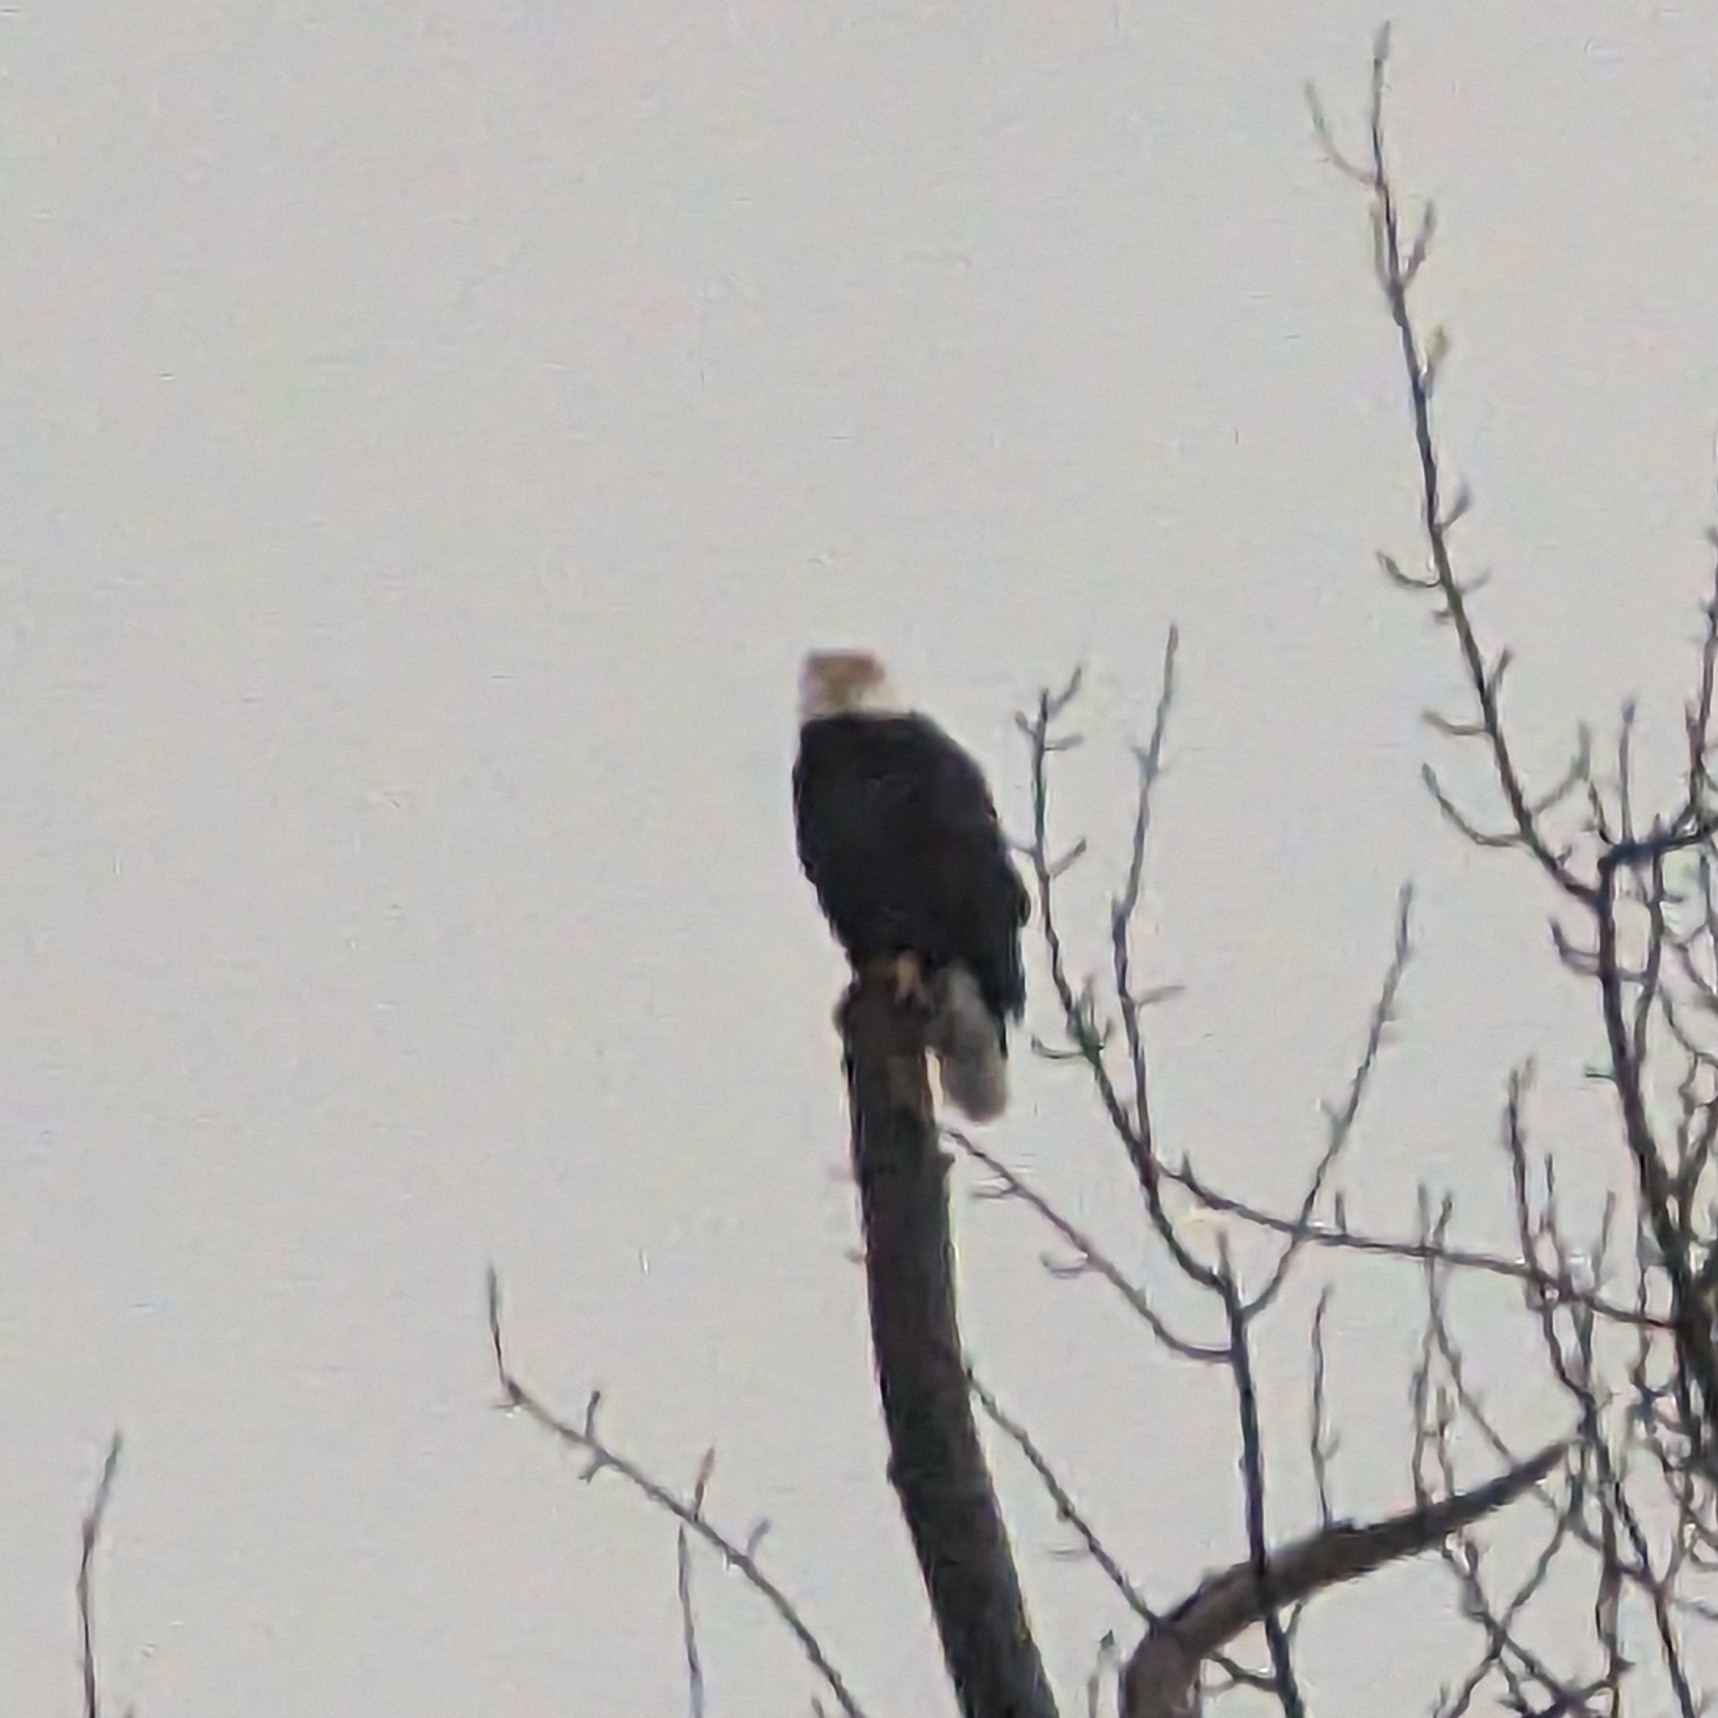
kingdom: Animalia
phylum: Chordata
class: Aves
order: Accipitriformes
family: Accipitridae
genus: Haliaeetus
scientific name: Haliaeetus leucocephalus
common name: Bald eagle
